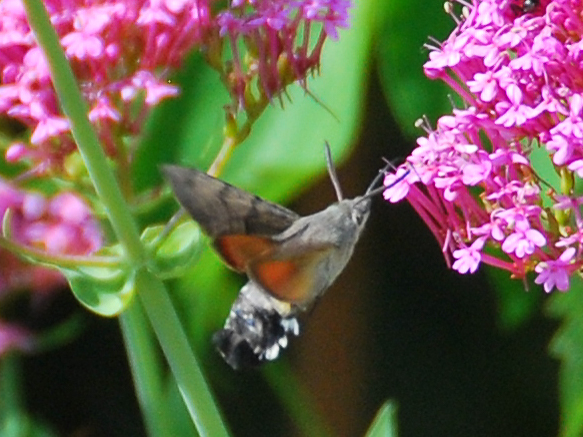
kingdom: Animalia
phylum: Arthropoda
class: Insecta
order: Lepidoptera
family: Sphingidae
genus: Macroglossum
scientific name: Macroglossum stellatarum
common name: Humming-bird hawk-moth
